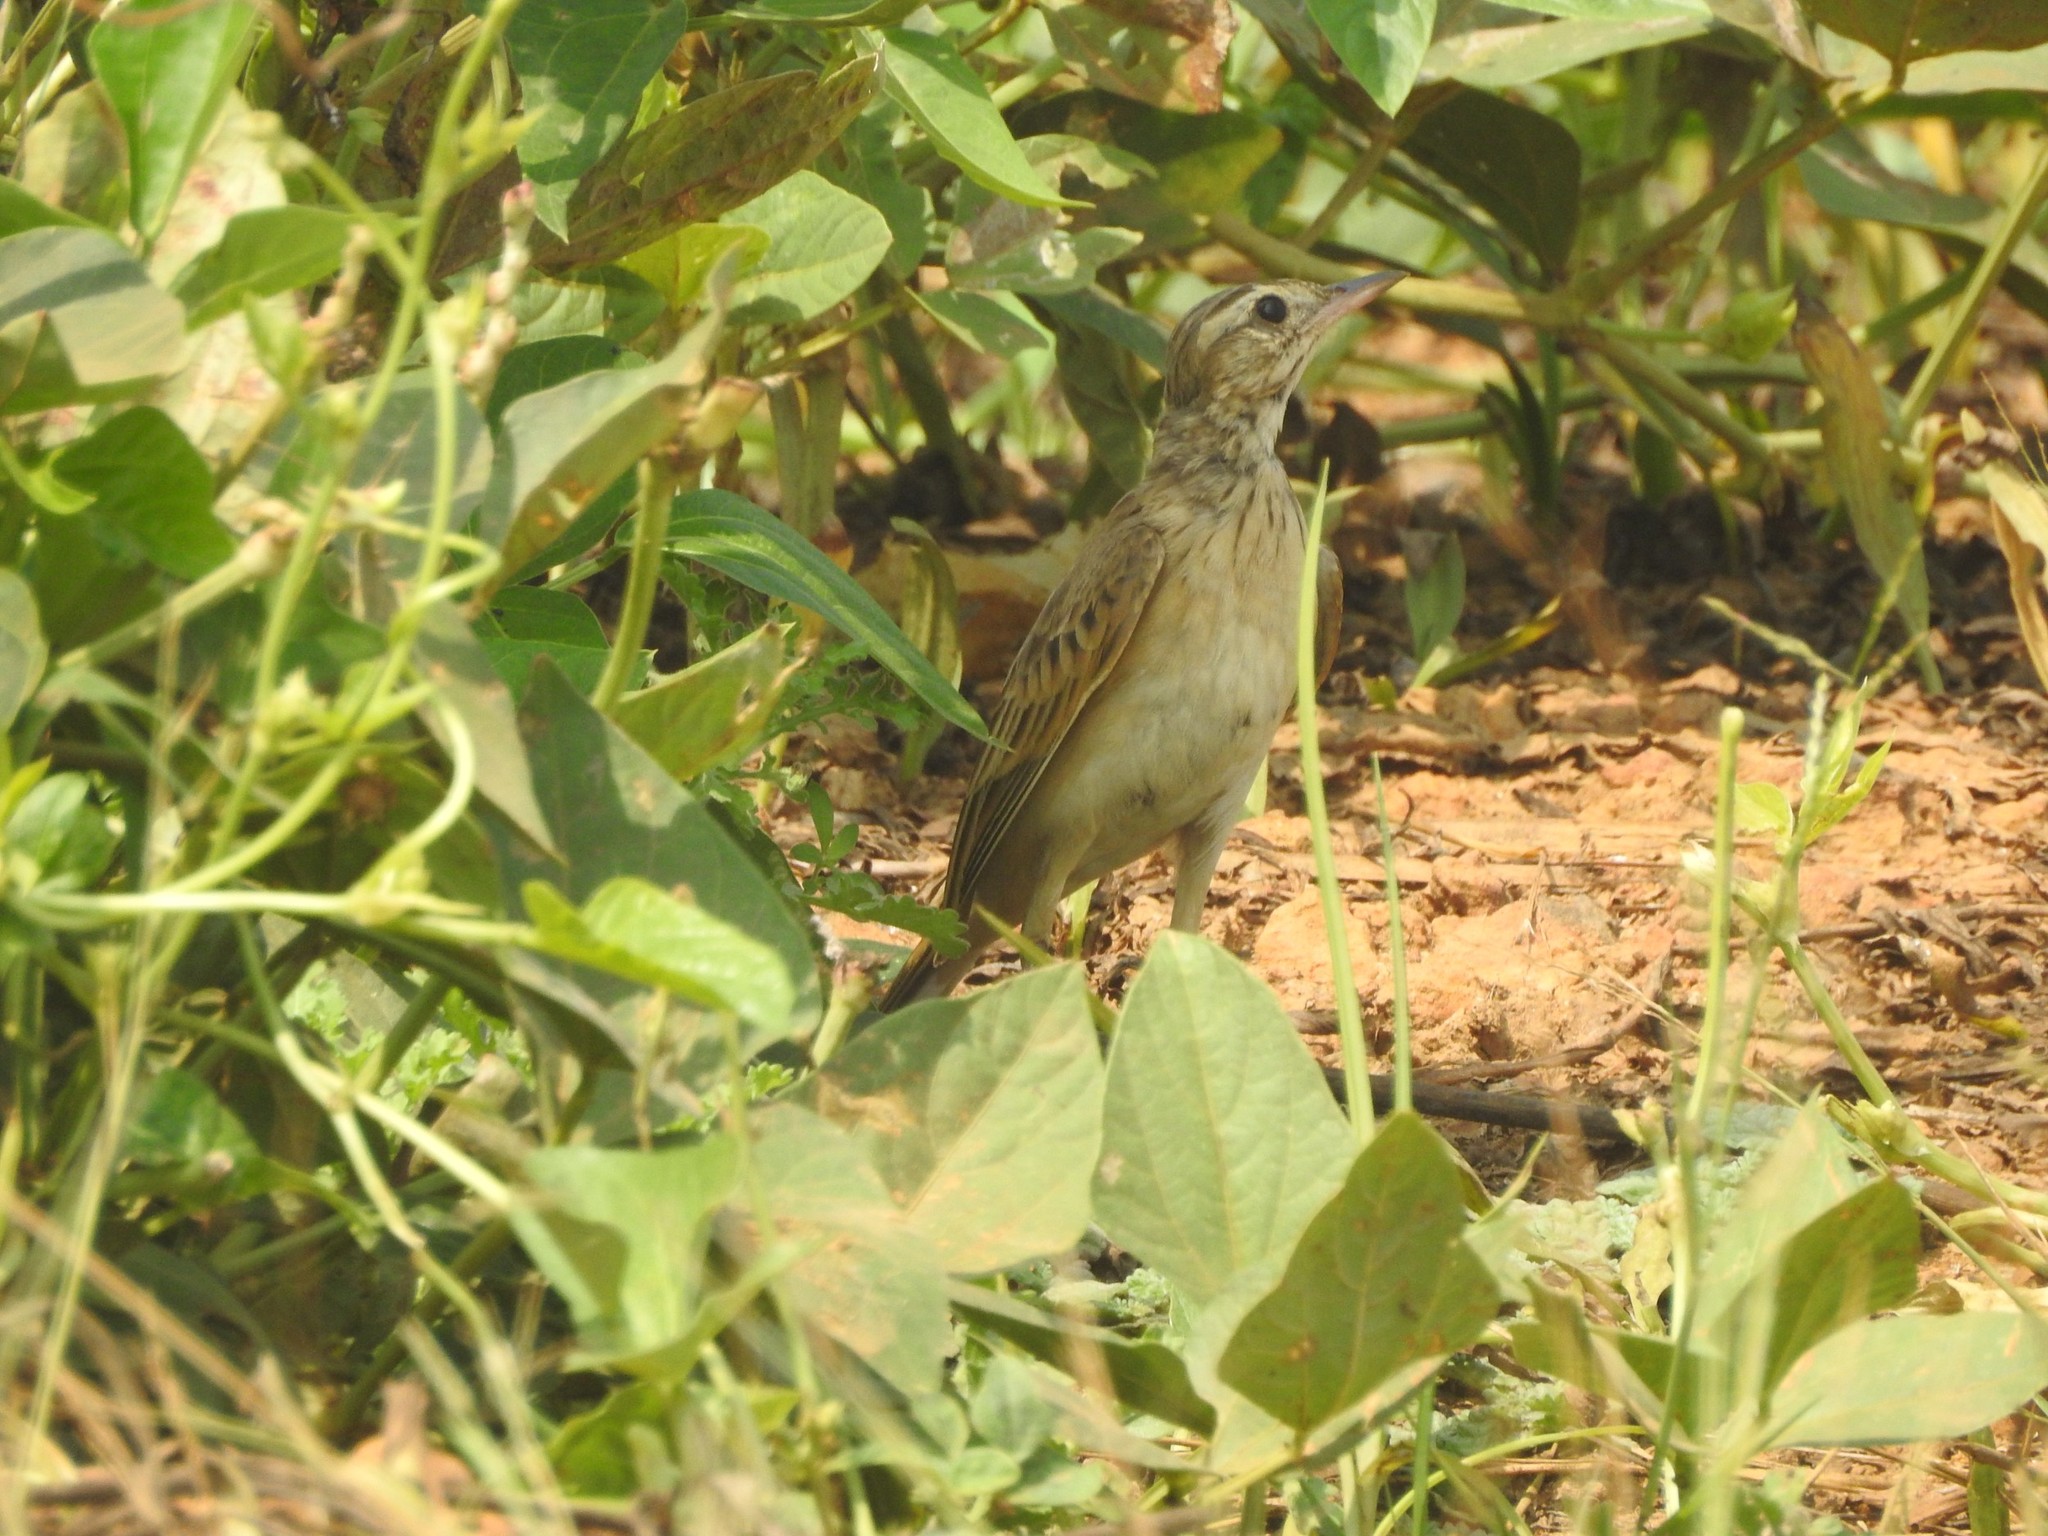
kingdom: Animalia
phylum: Chordata
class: Aves
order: Passeriformes
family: Motacillidae
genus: Anthus
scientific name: Anthus richardi
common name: Richard's pipit
